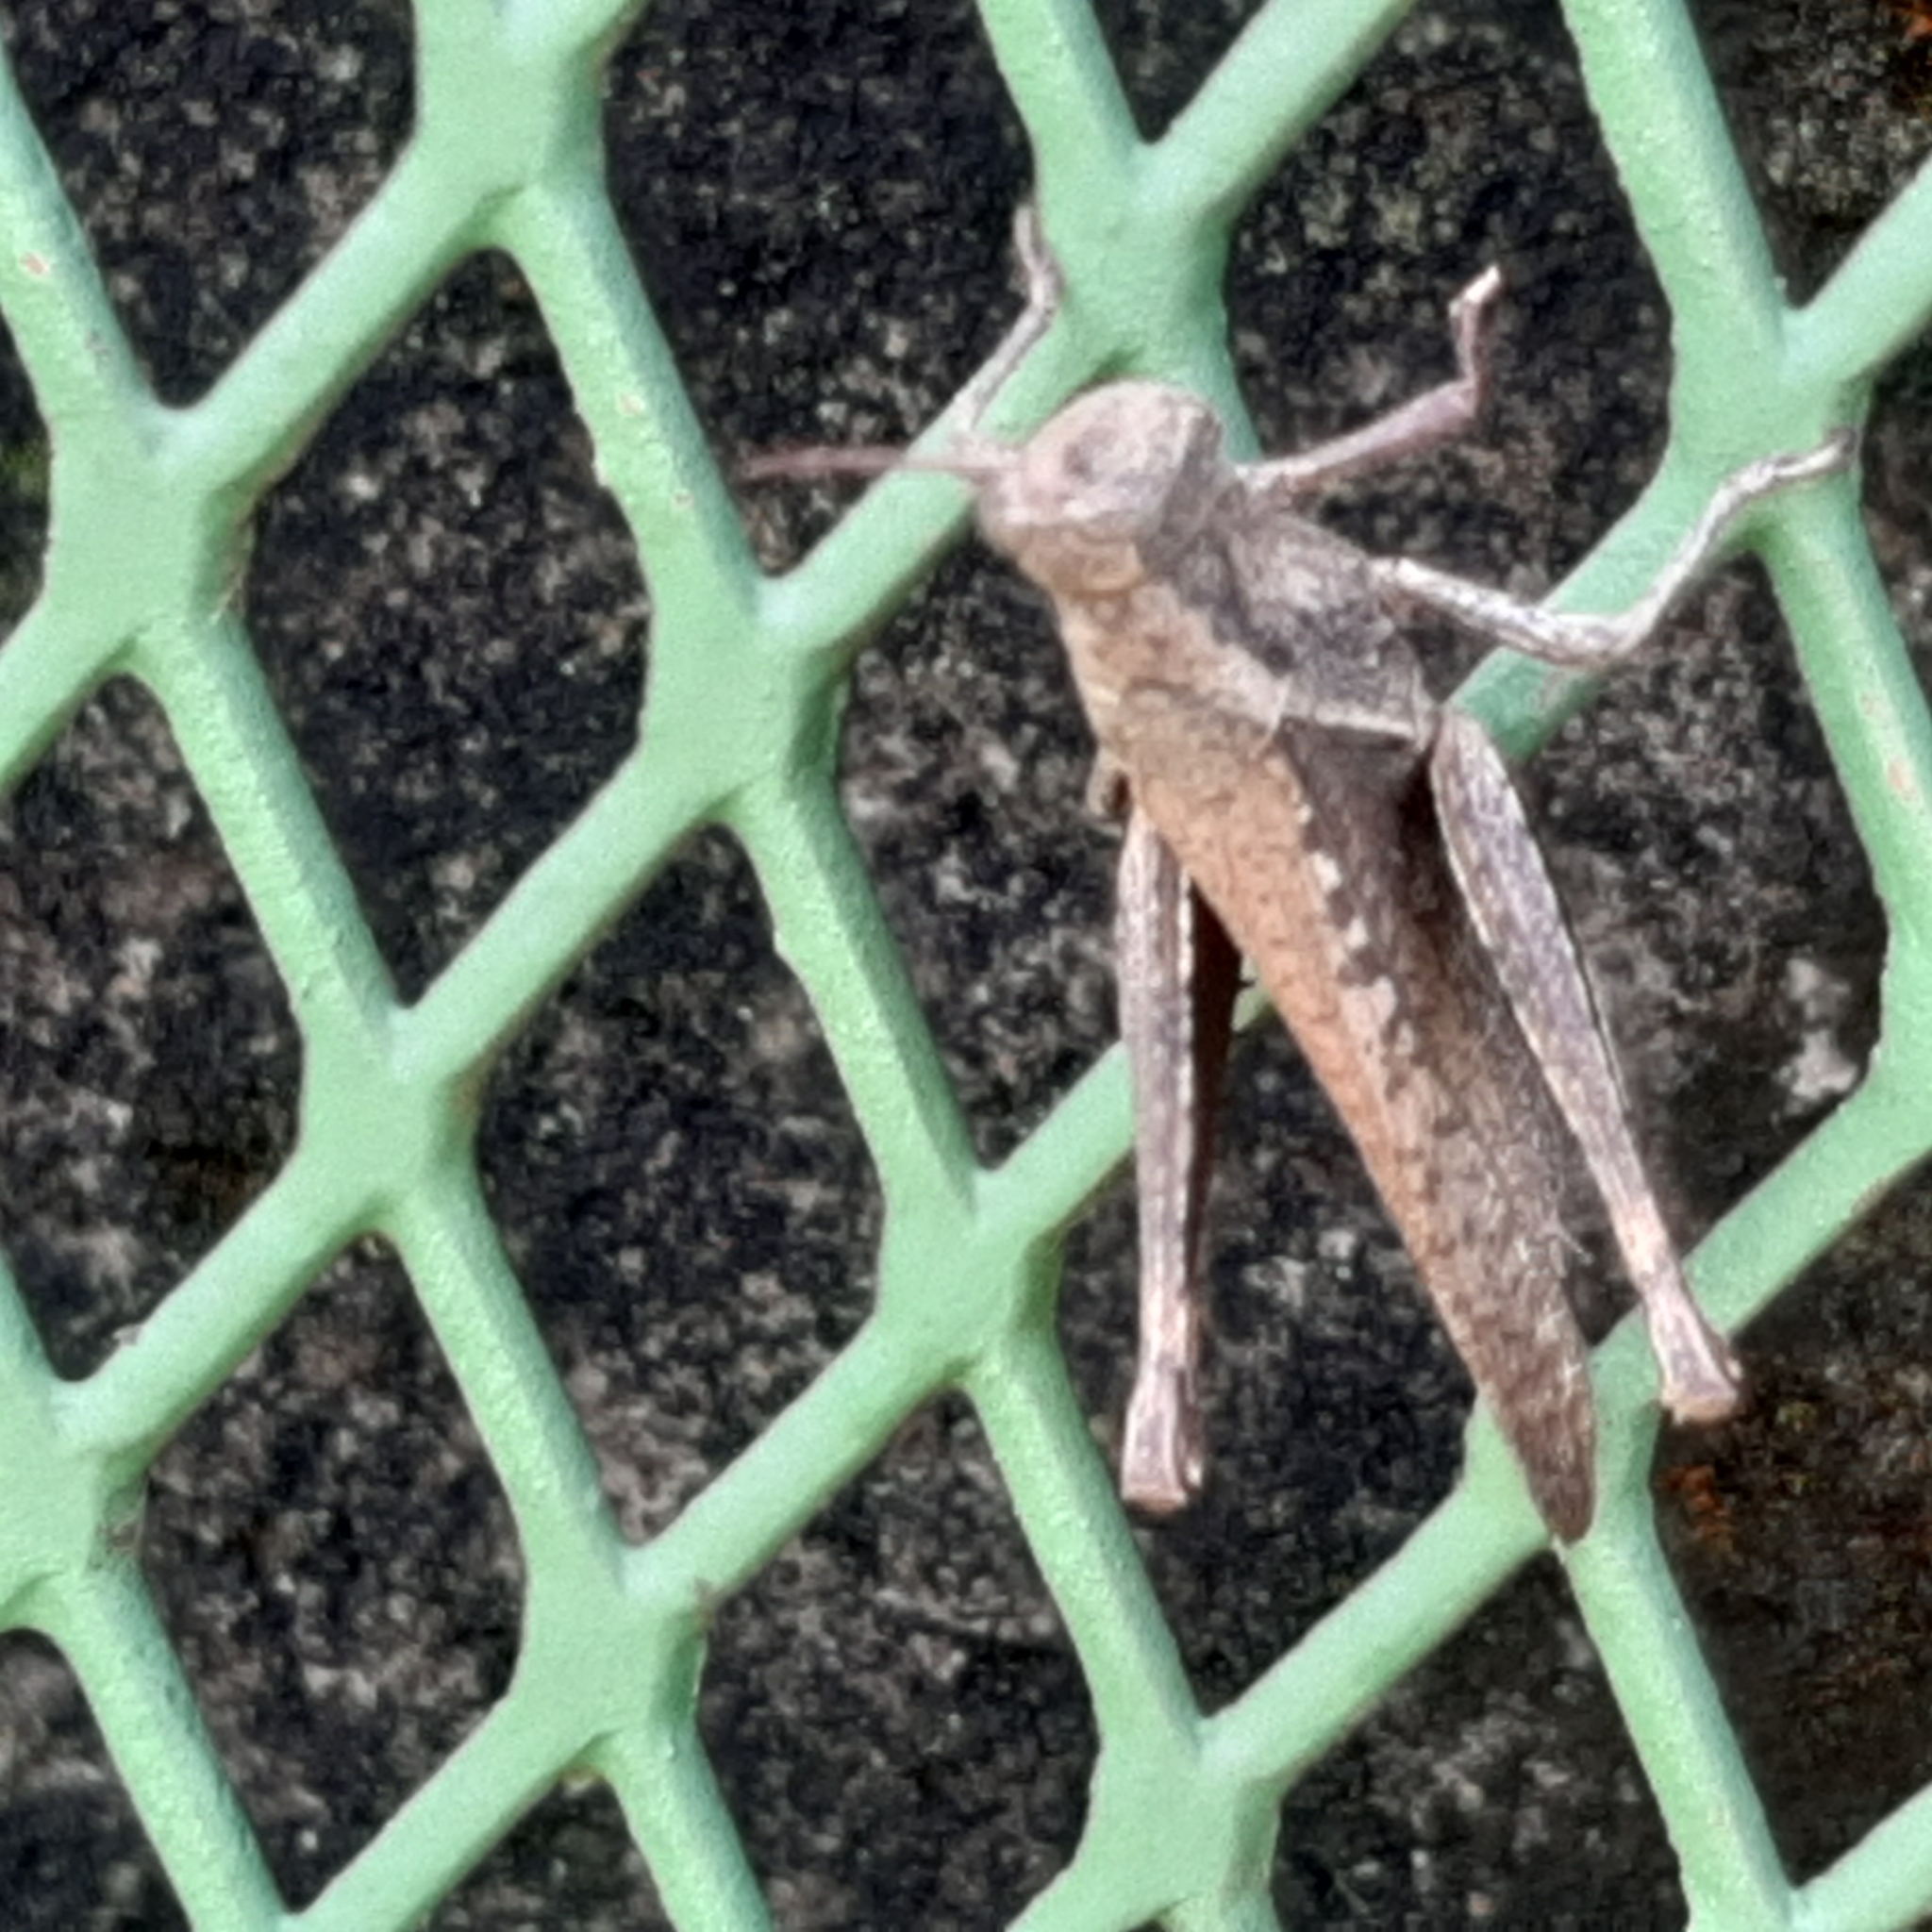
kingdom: Animalia
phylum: Arthropoda
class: Insecta
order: Orthoptera
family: Acrididae
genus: Abracris
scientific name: Abracris flavolineata
